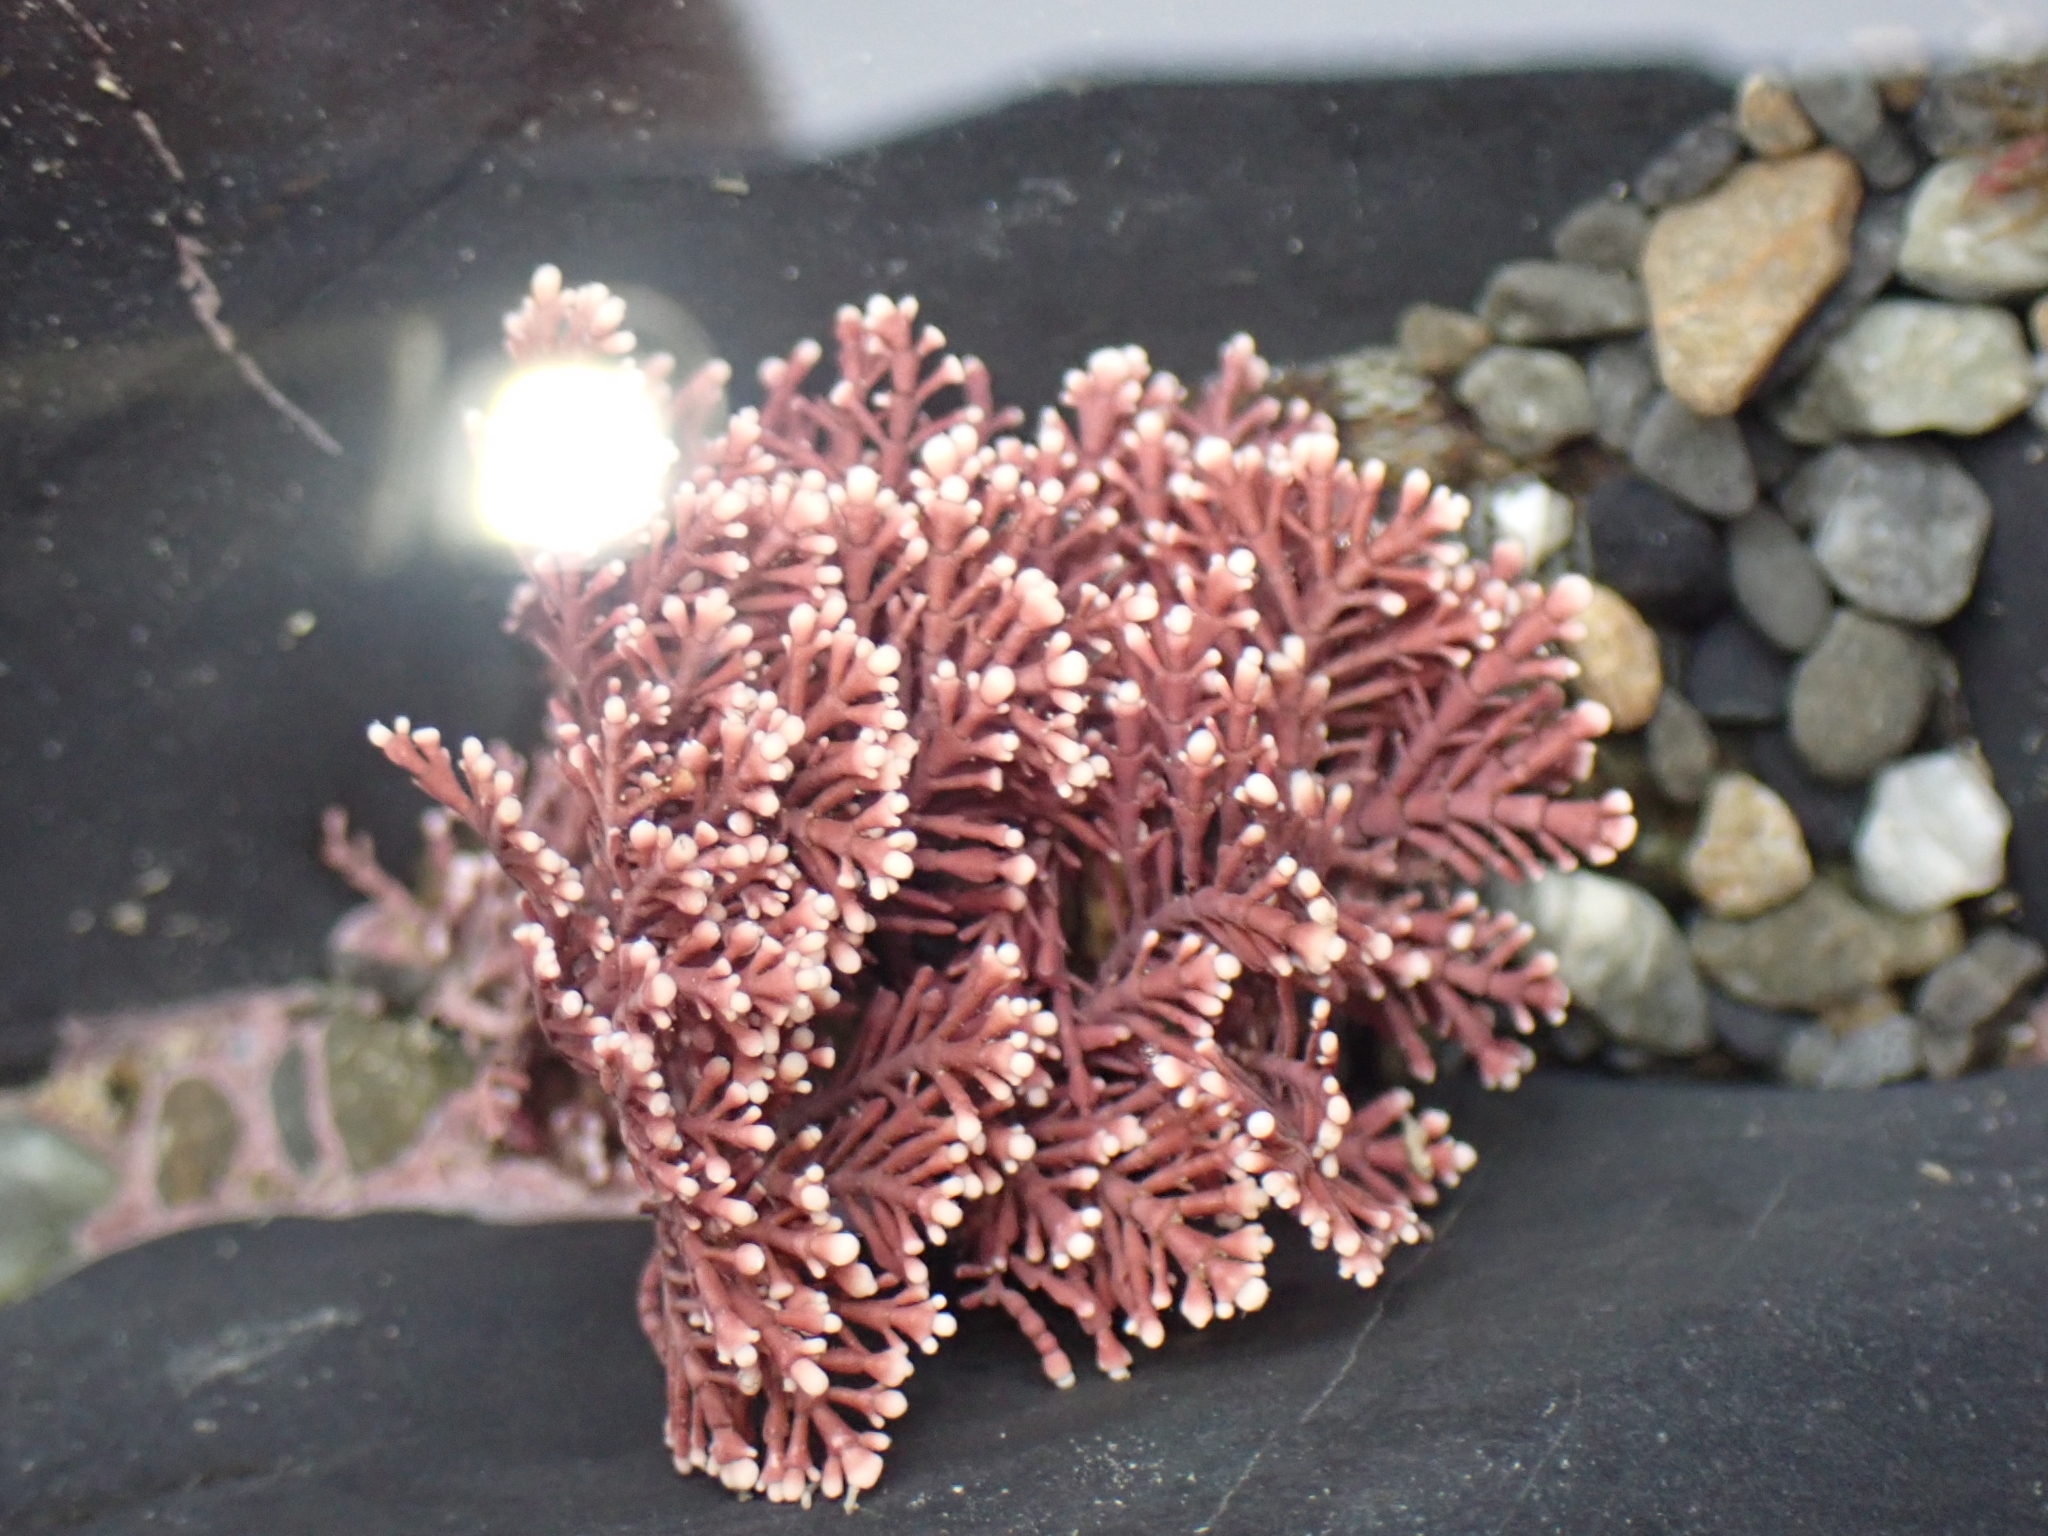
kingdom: Plantae
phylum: Rhodophyta
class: Florideophyceae
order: Corallinales
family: Corallinaceae
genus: Corallina
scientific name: Corallina officinalis
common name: Coral weed
